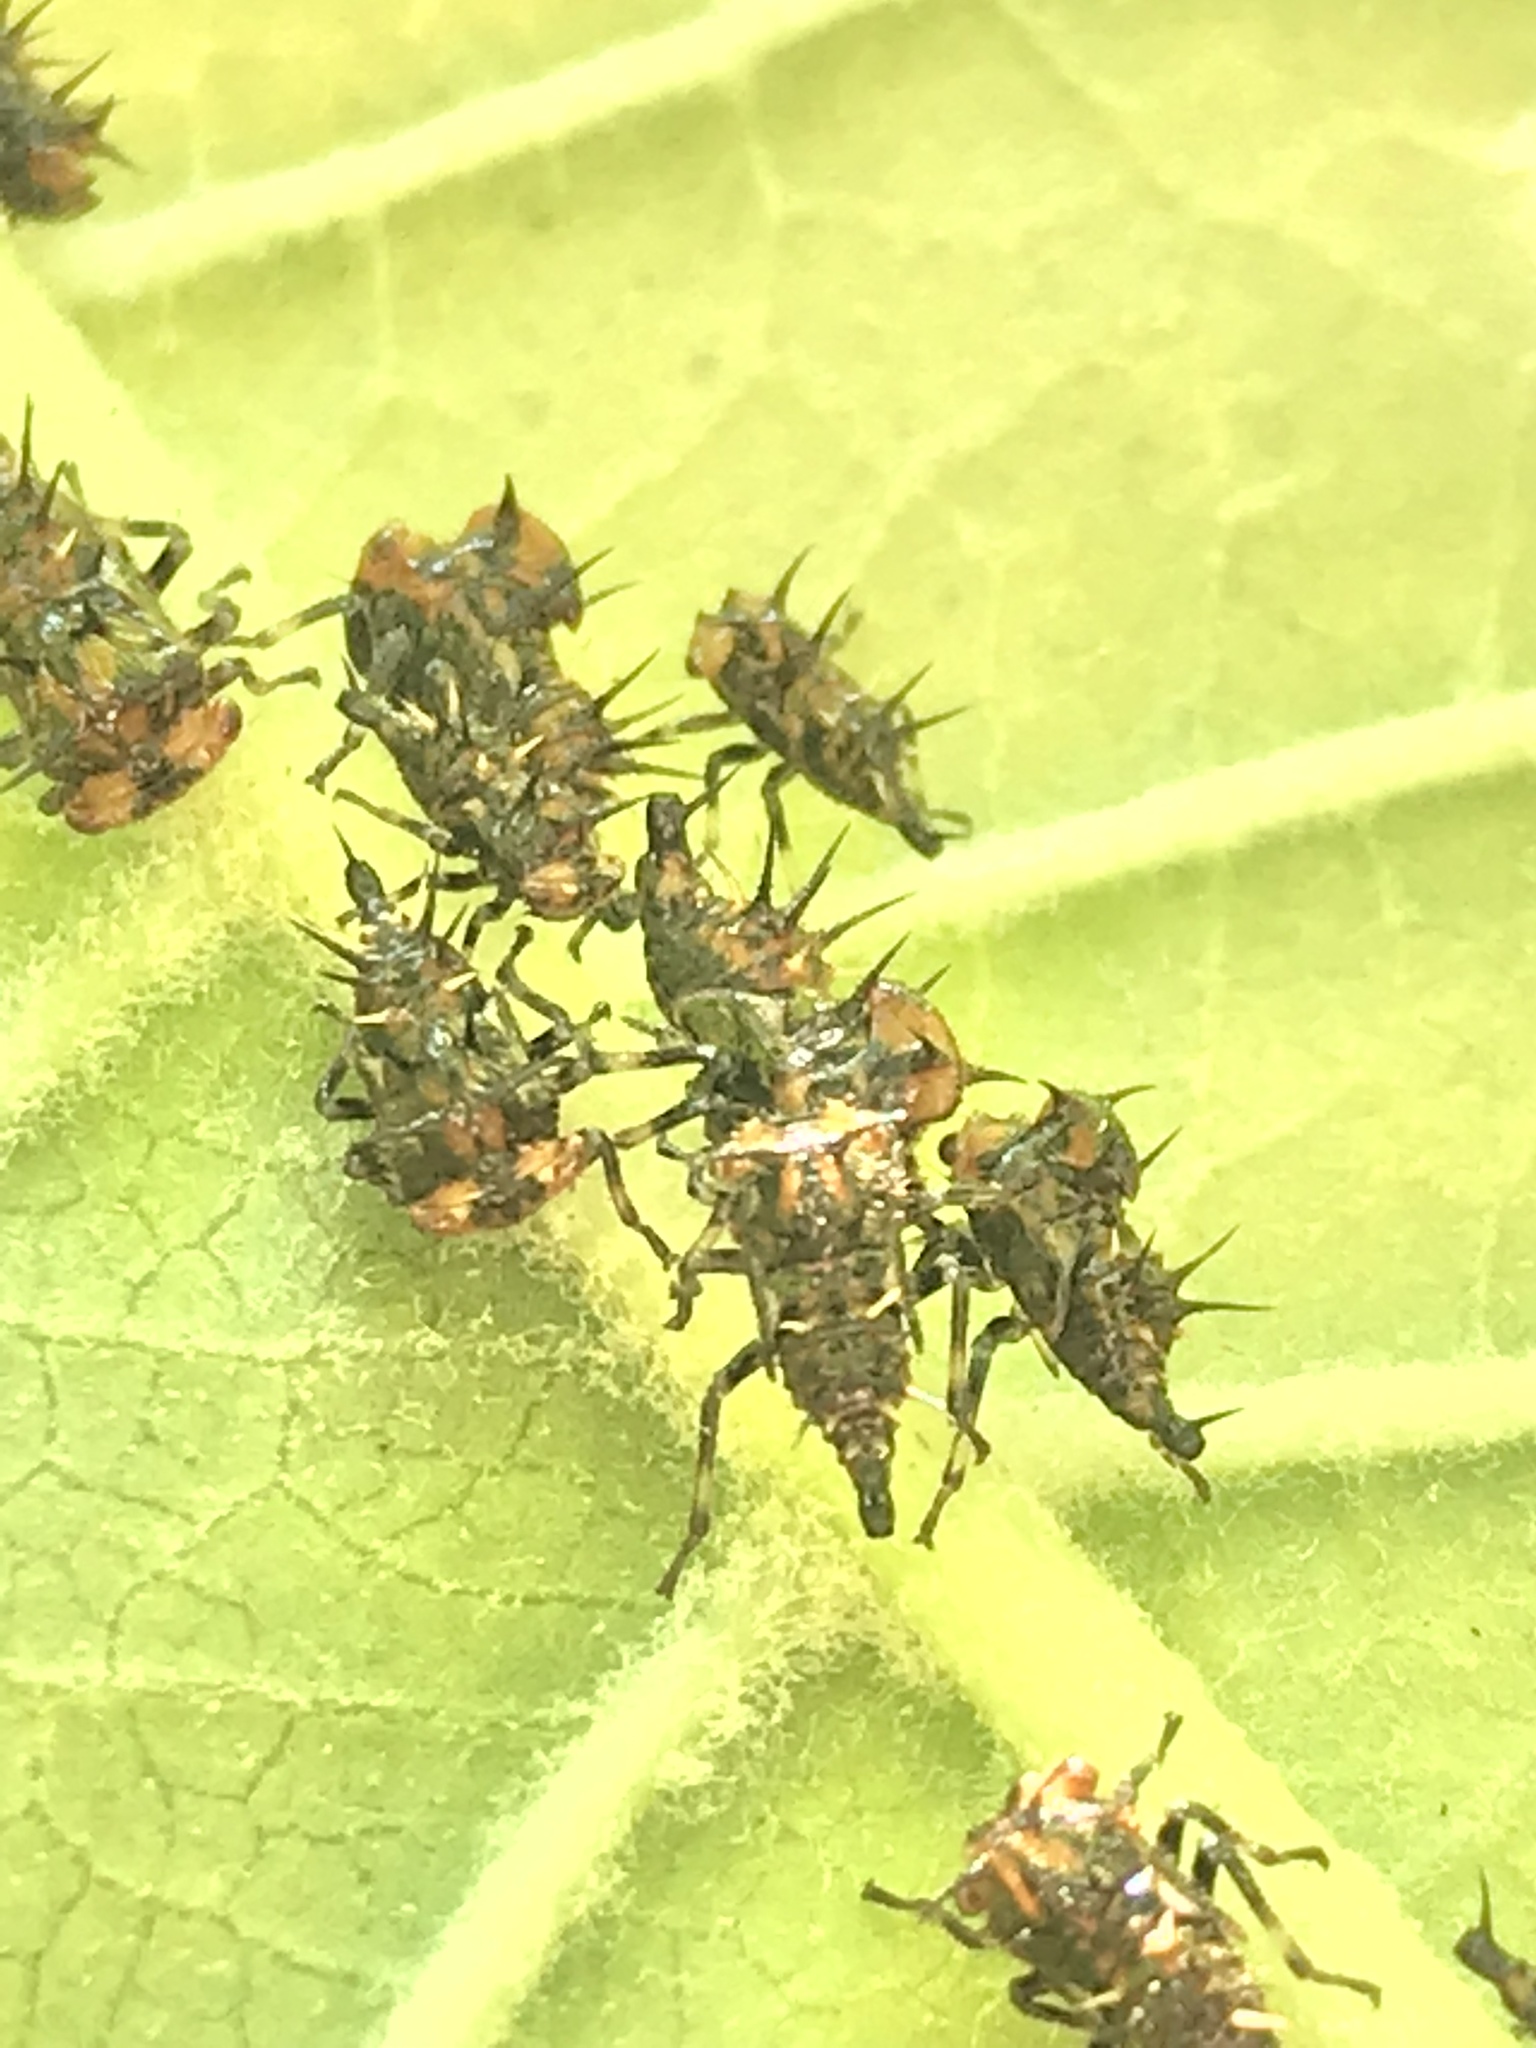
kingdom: Animalia
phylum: Arthropoda
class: Insecta
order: Hemiptera
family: Membracidae
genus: Antianthe
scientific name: Antianthe expansa
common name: Keeled tree hopper
